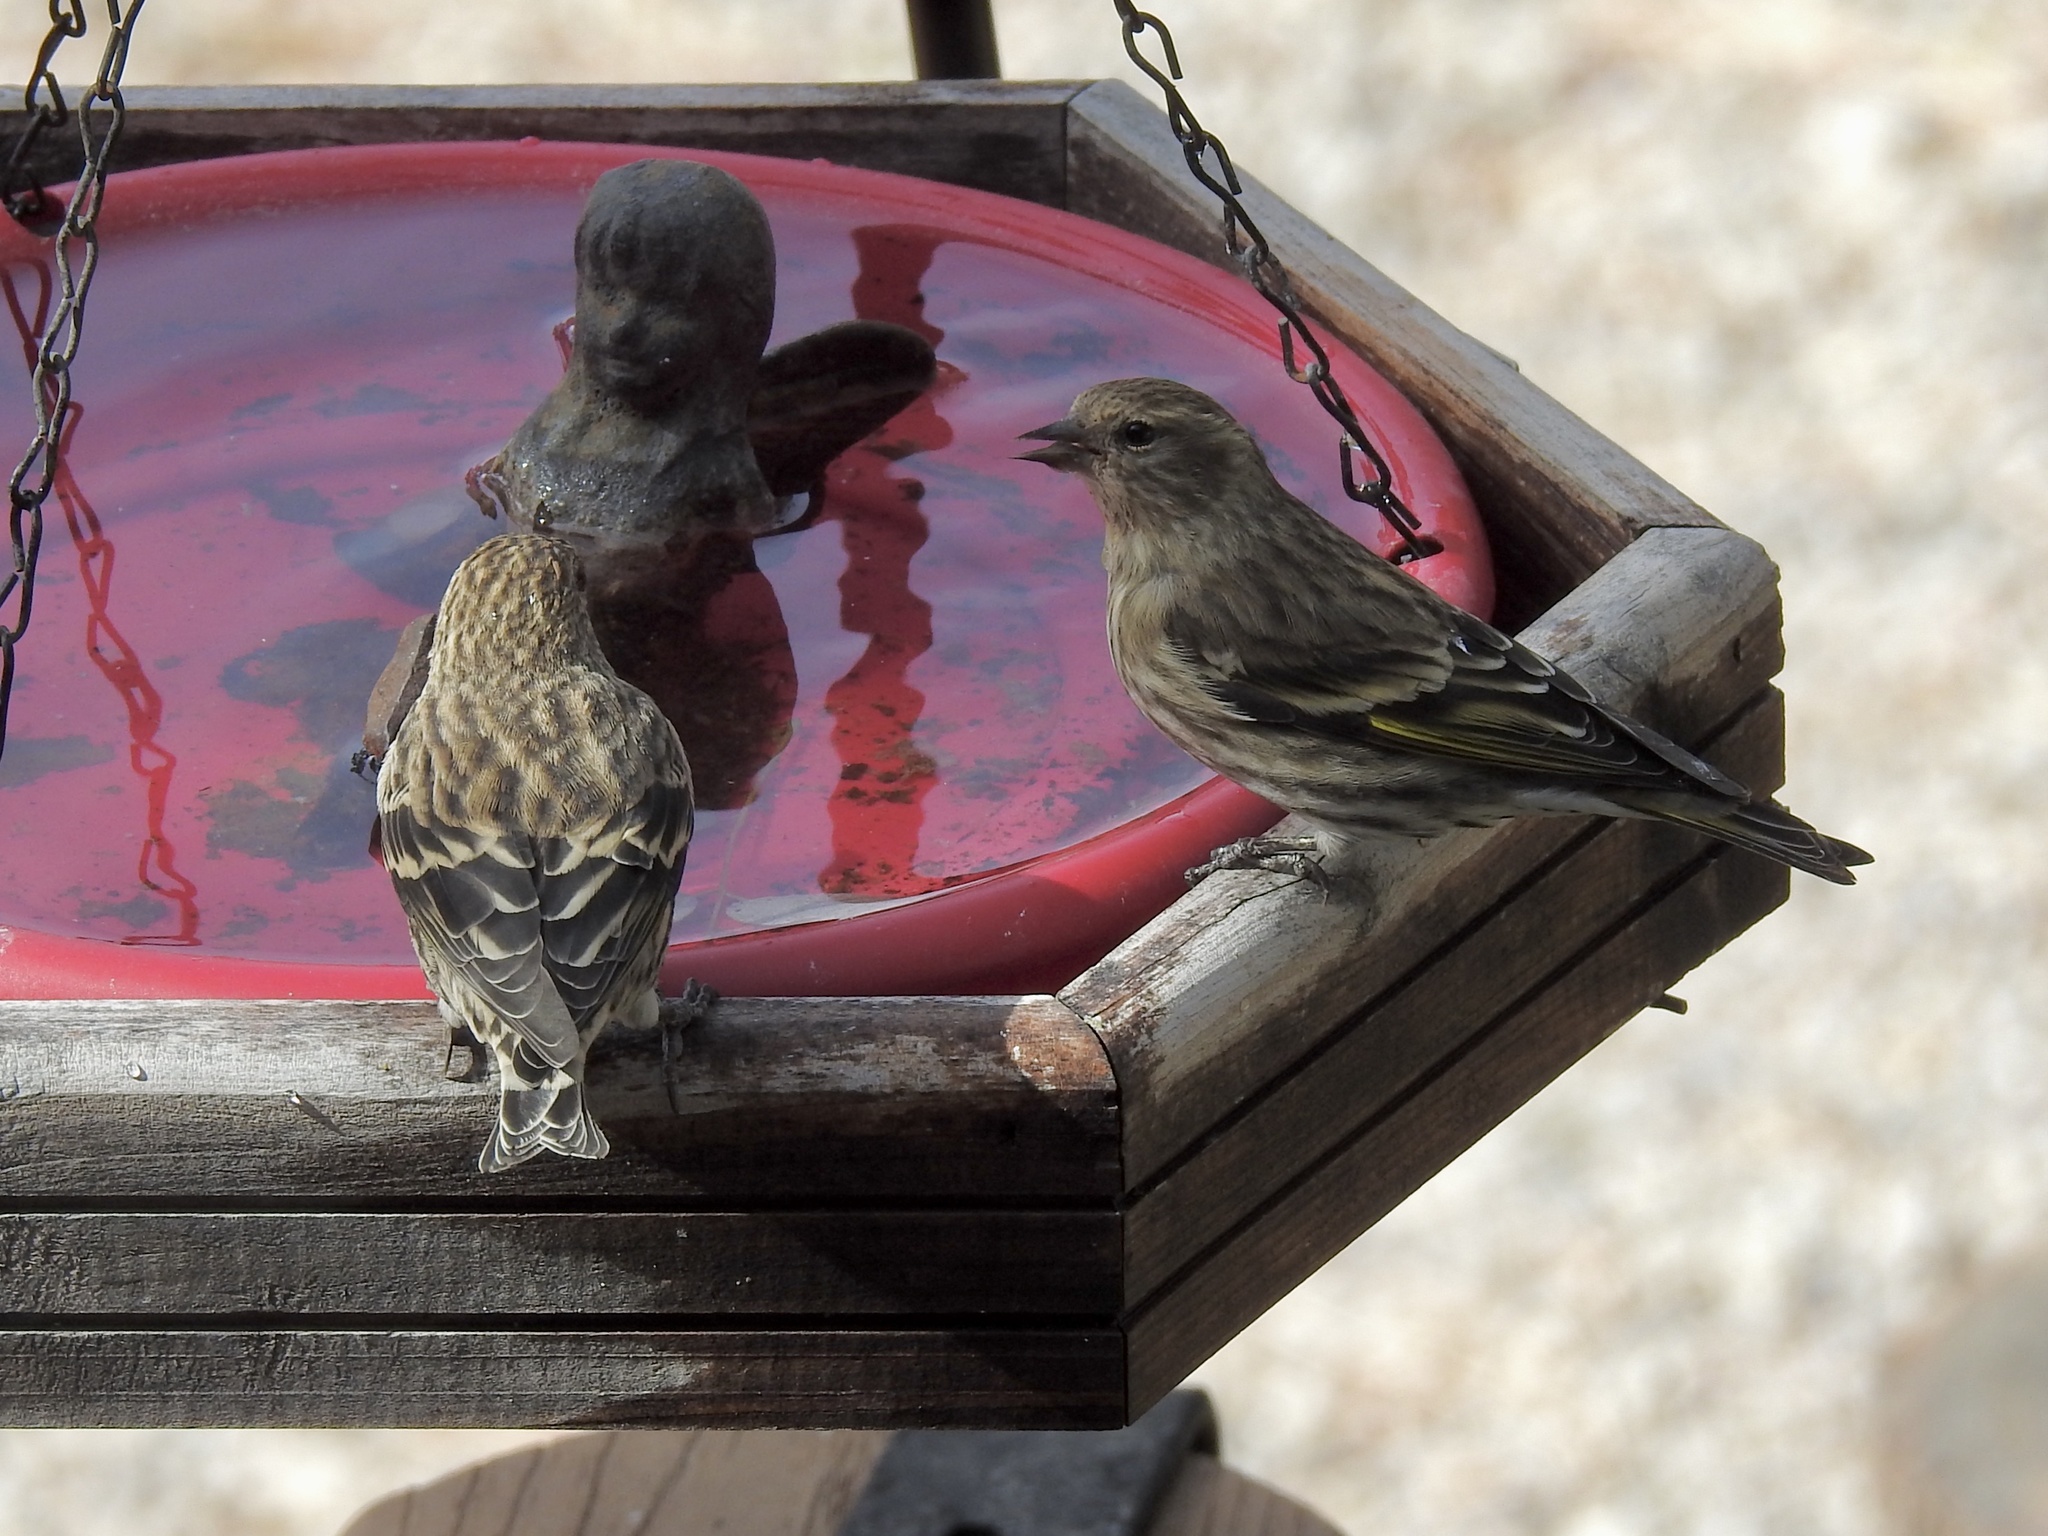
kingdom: Animalia
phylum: Chordata
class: Aves
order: Passeriformes
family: Fringillidae
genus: Spinus
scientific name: Spinus pinus
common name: Pine siskin
